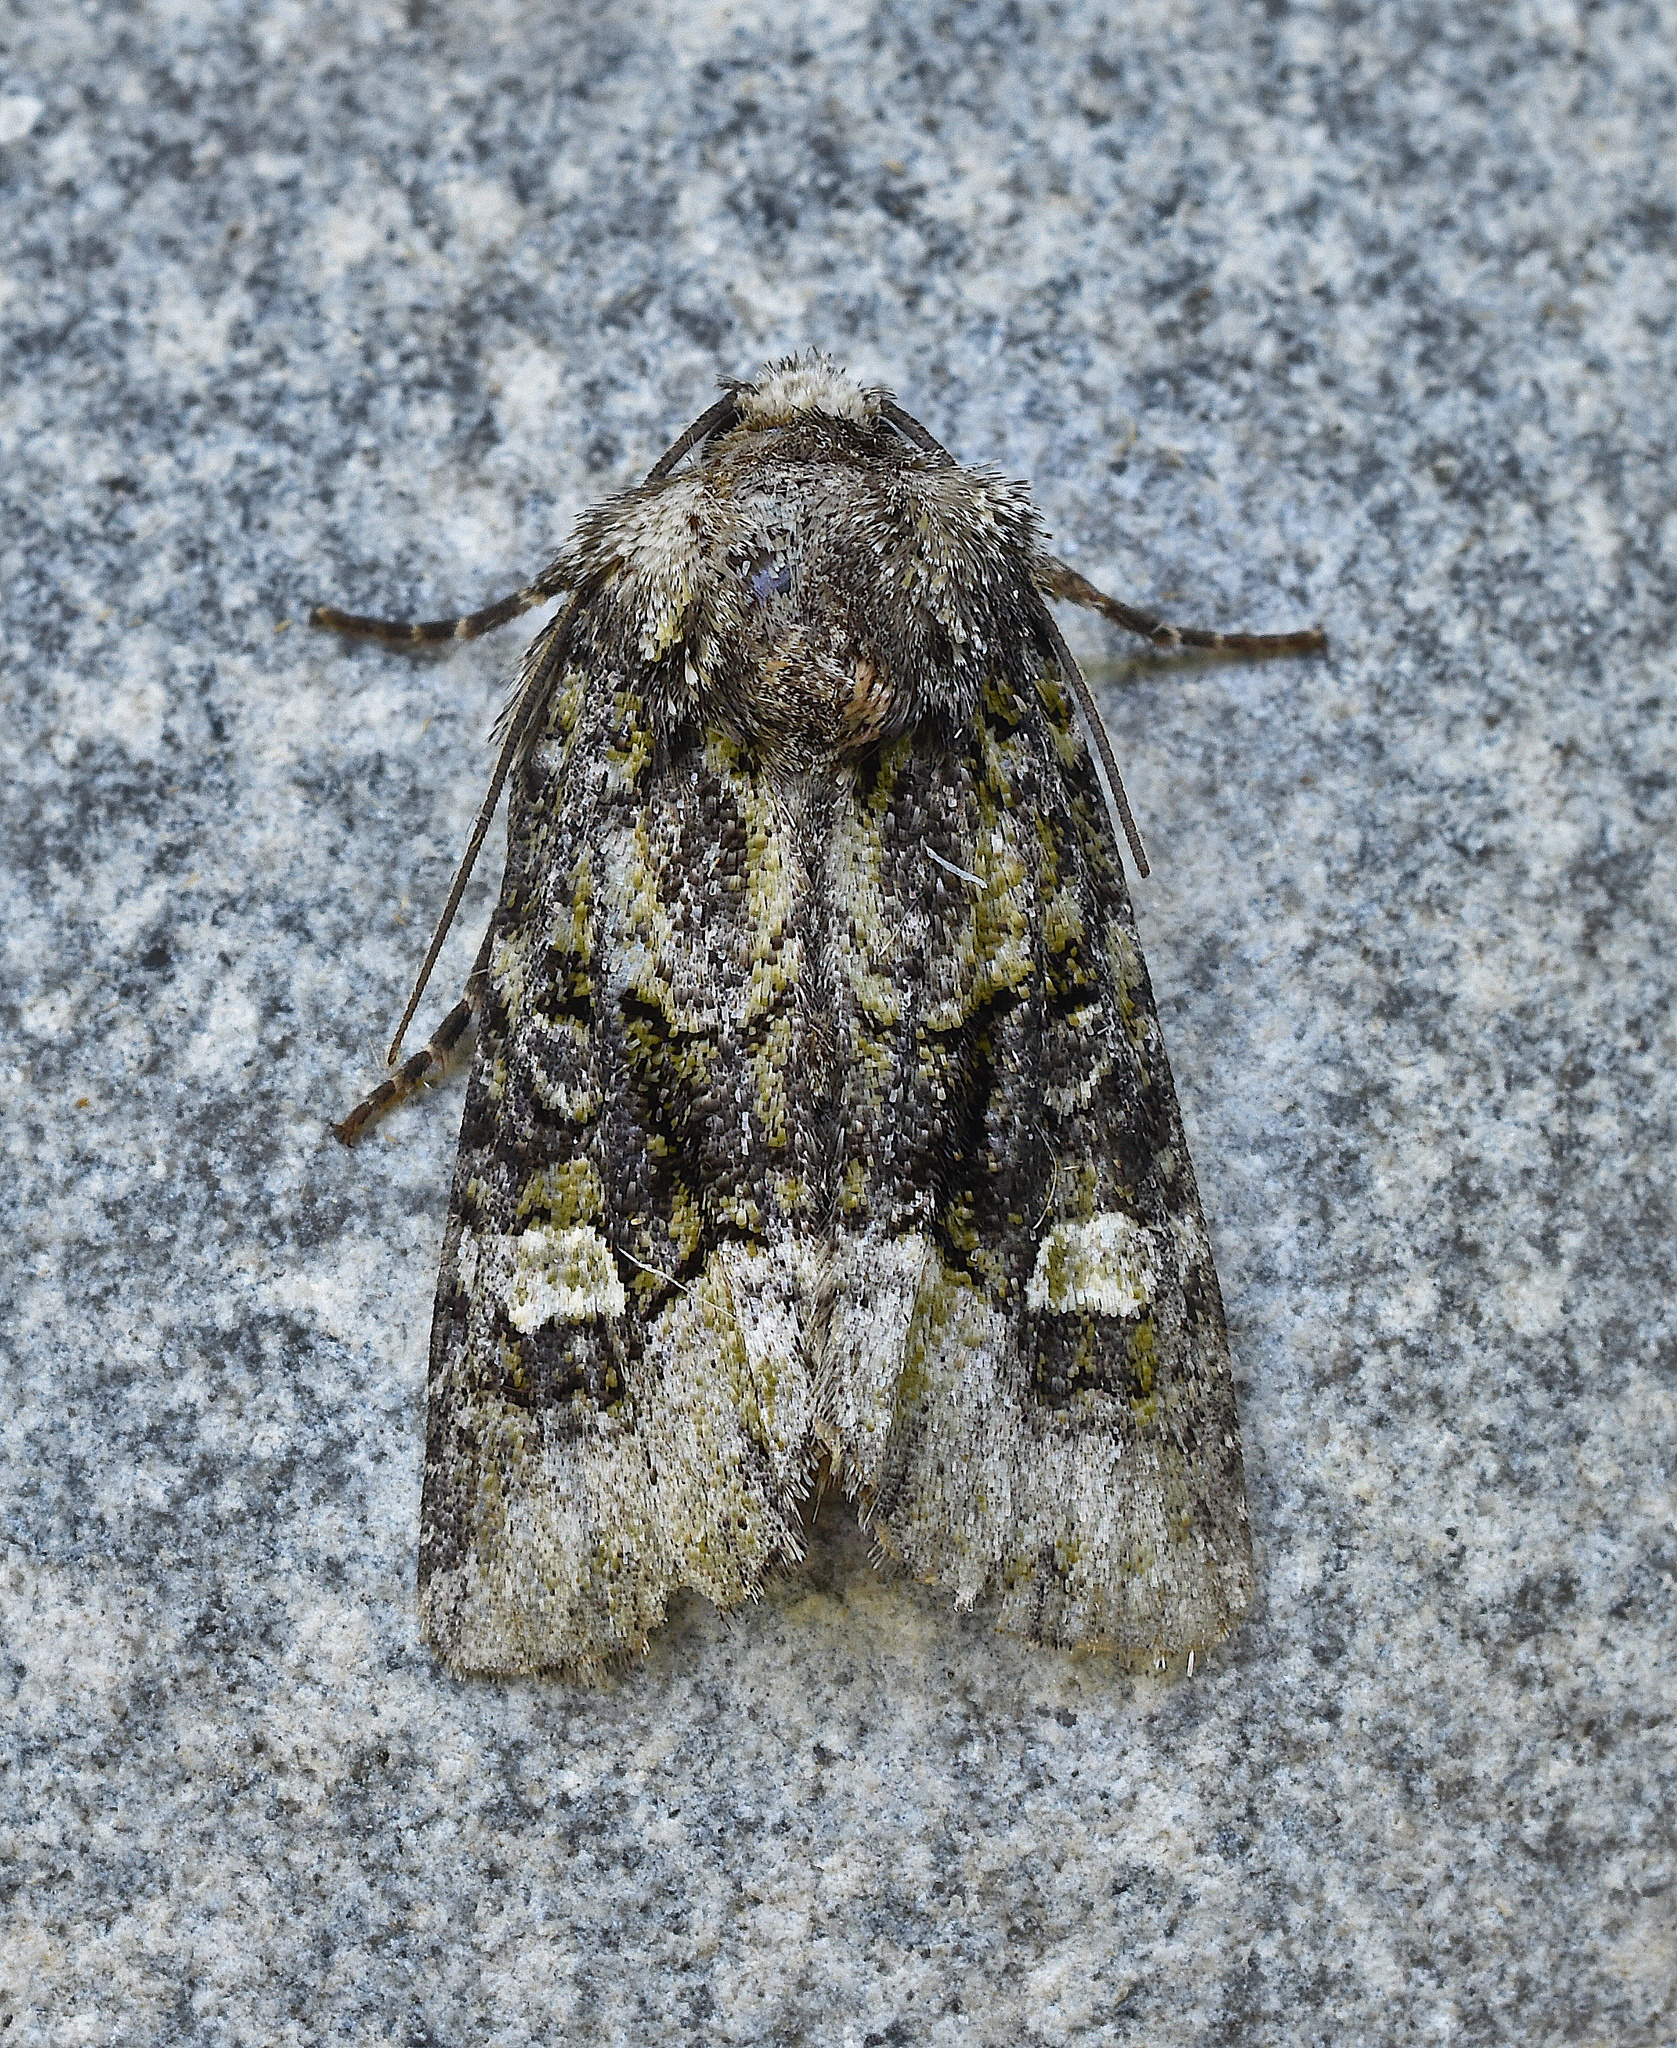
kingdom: Animalia
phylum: Arthropoda
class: Insecta
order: Lepidoptera
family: Noctuidae
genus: Lacinipolia
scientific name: Lacinipolia olivacea
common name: Olive arches moth
